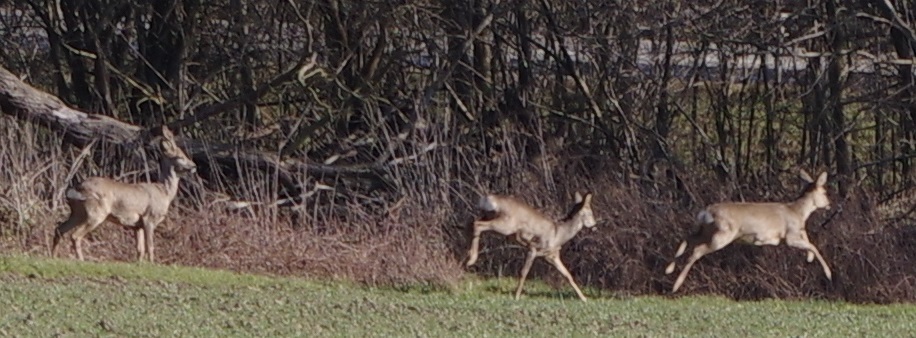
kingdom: Animalia
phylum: Chordata
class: Mammalia
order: Artiodactyla
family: Cervidae
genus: Capreolus
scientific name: Capreolus capreolus
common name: Western roe deer
